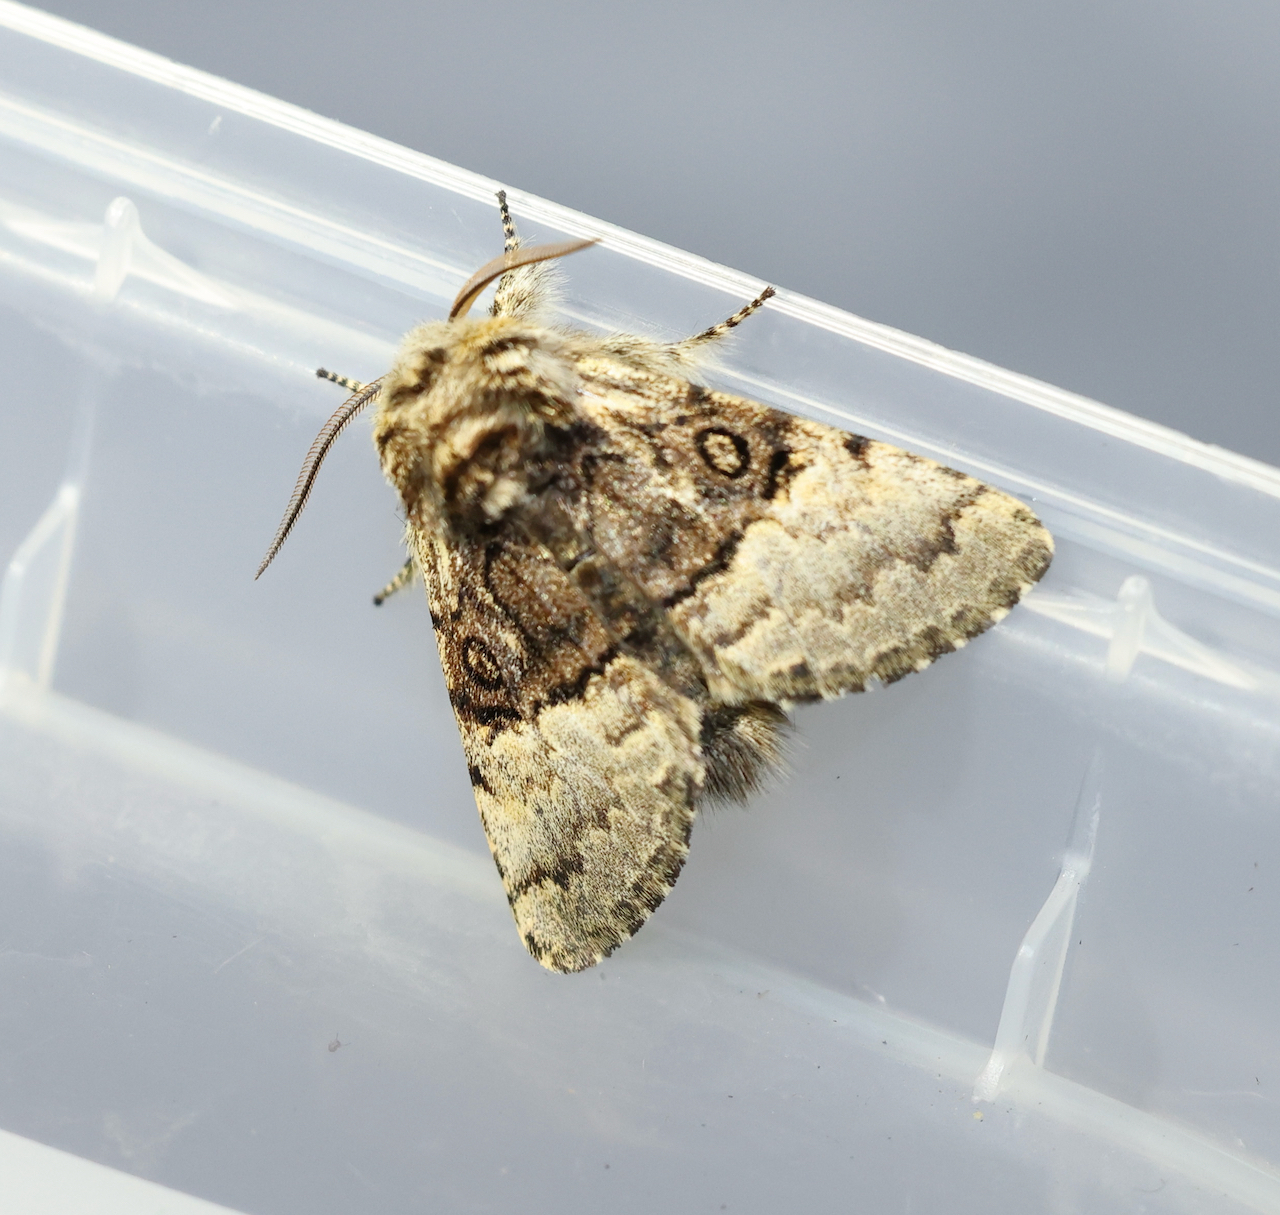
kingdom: Animalia
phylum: Arthropoda
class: Insecta
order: Lepidoptera
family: Noctuidae
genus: Colocasia
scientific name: Colocasia coryli
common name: Nut-tree tussock
